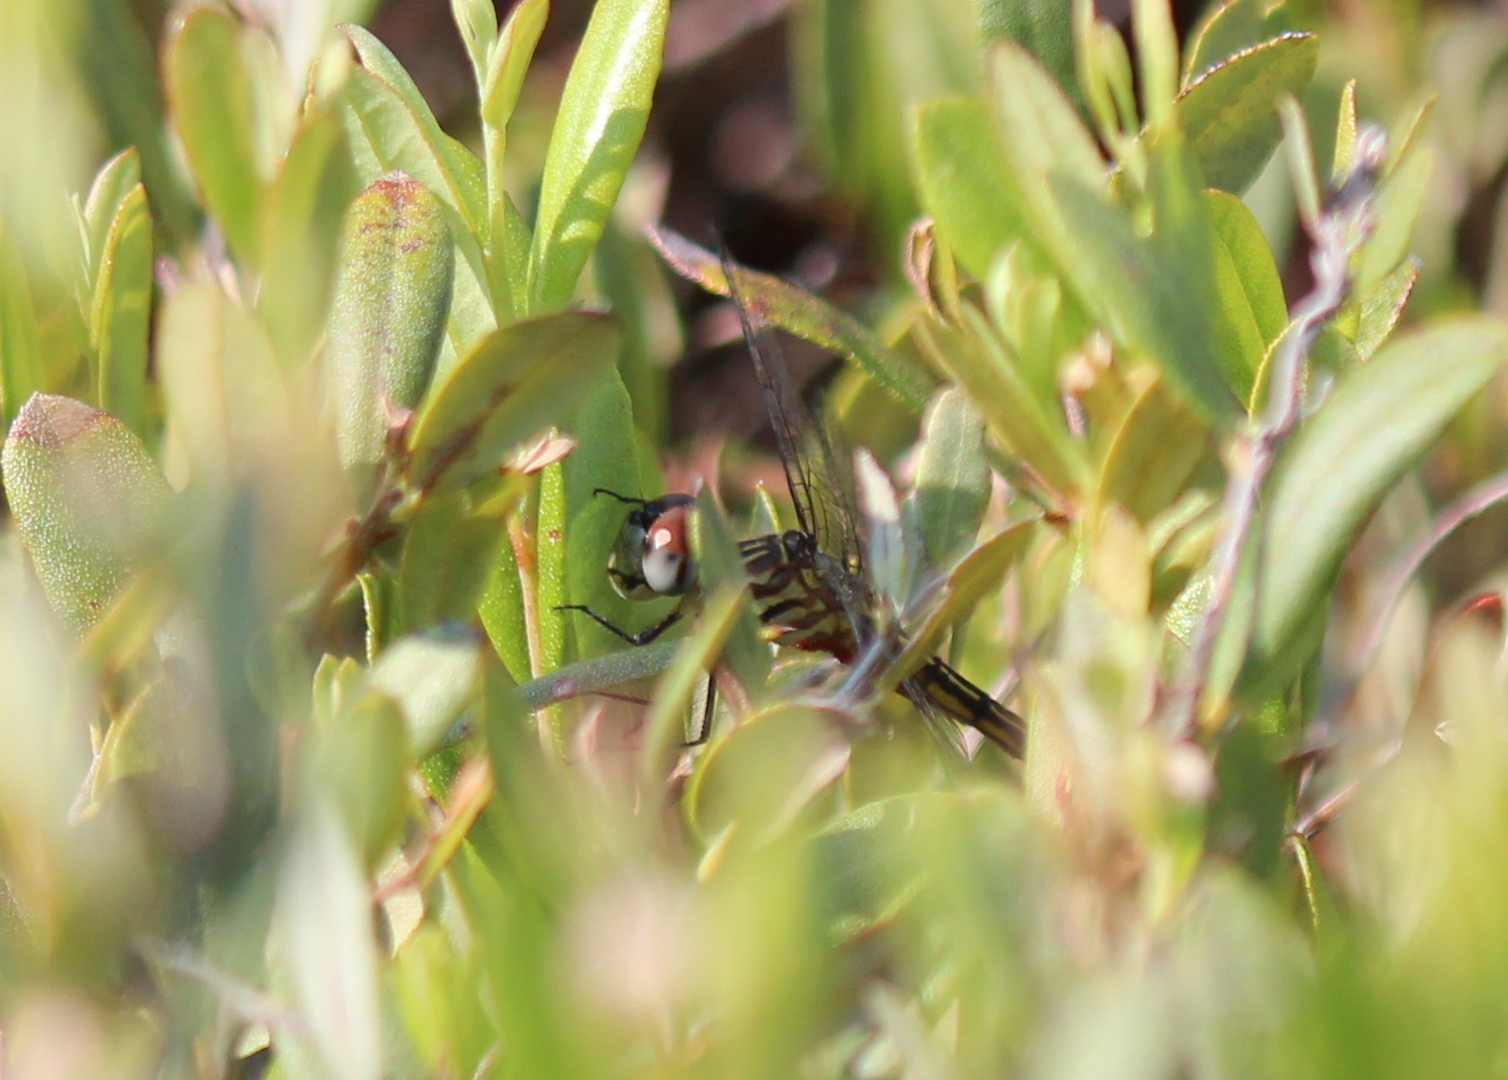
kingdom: Animalia
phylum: Arthropoda
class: Insecta
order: Odonata
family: Libellulidae
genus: Pachydiplax
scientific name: Pachydiplax longipennis
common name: Blue dasher
